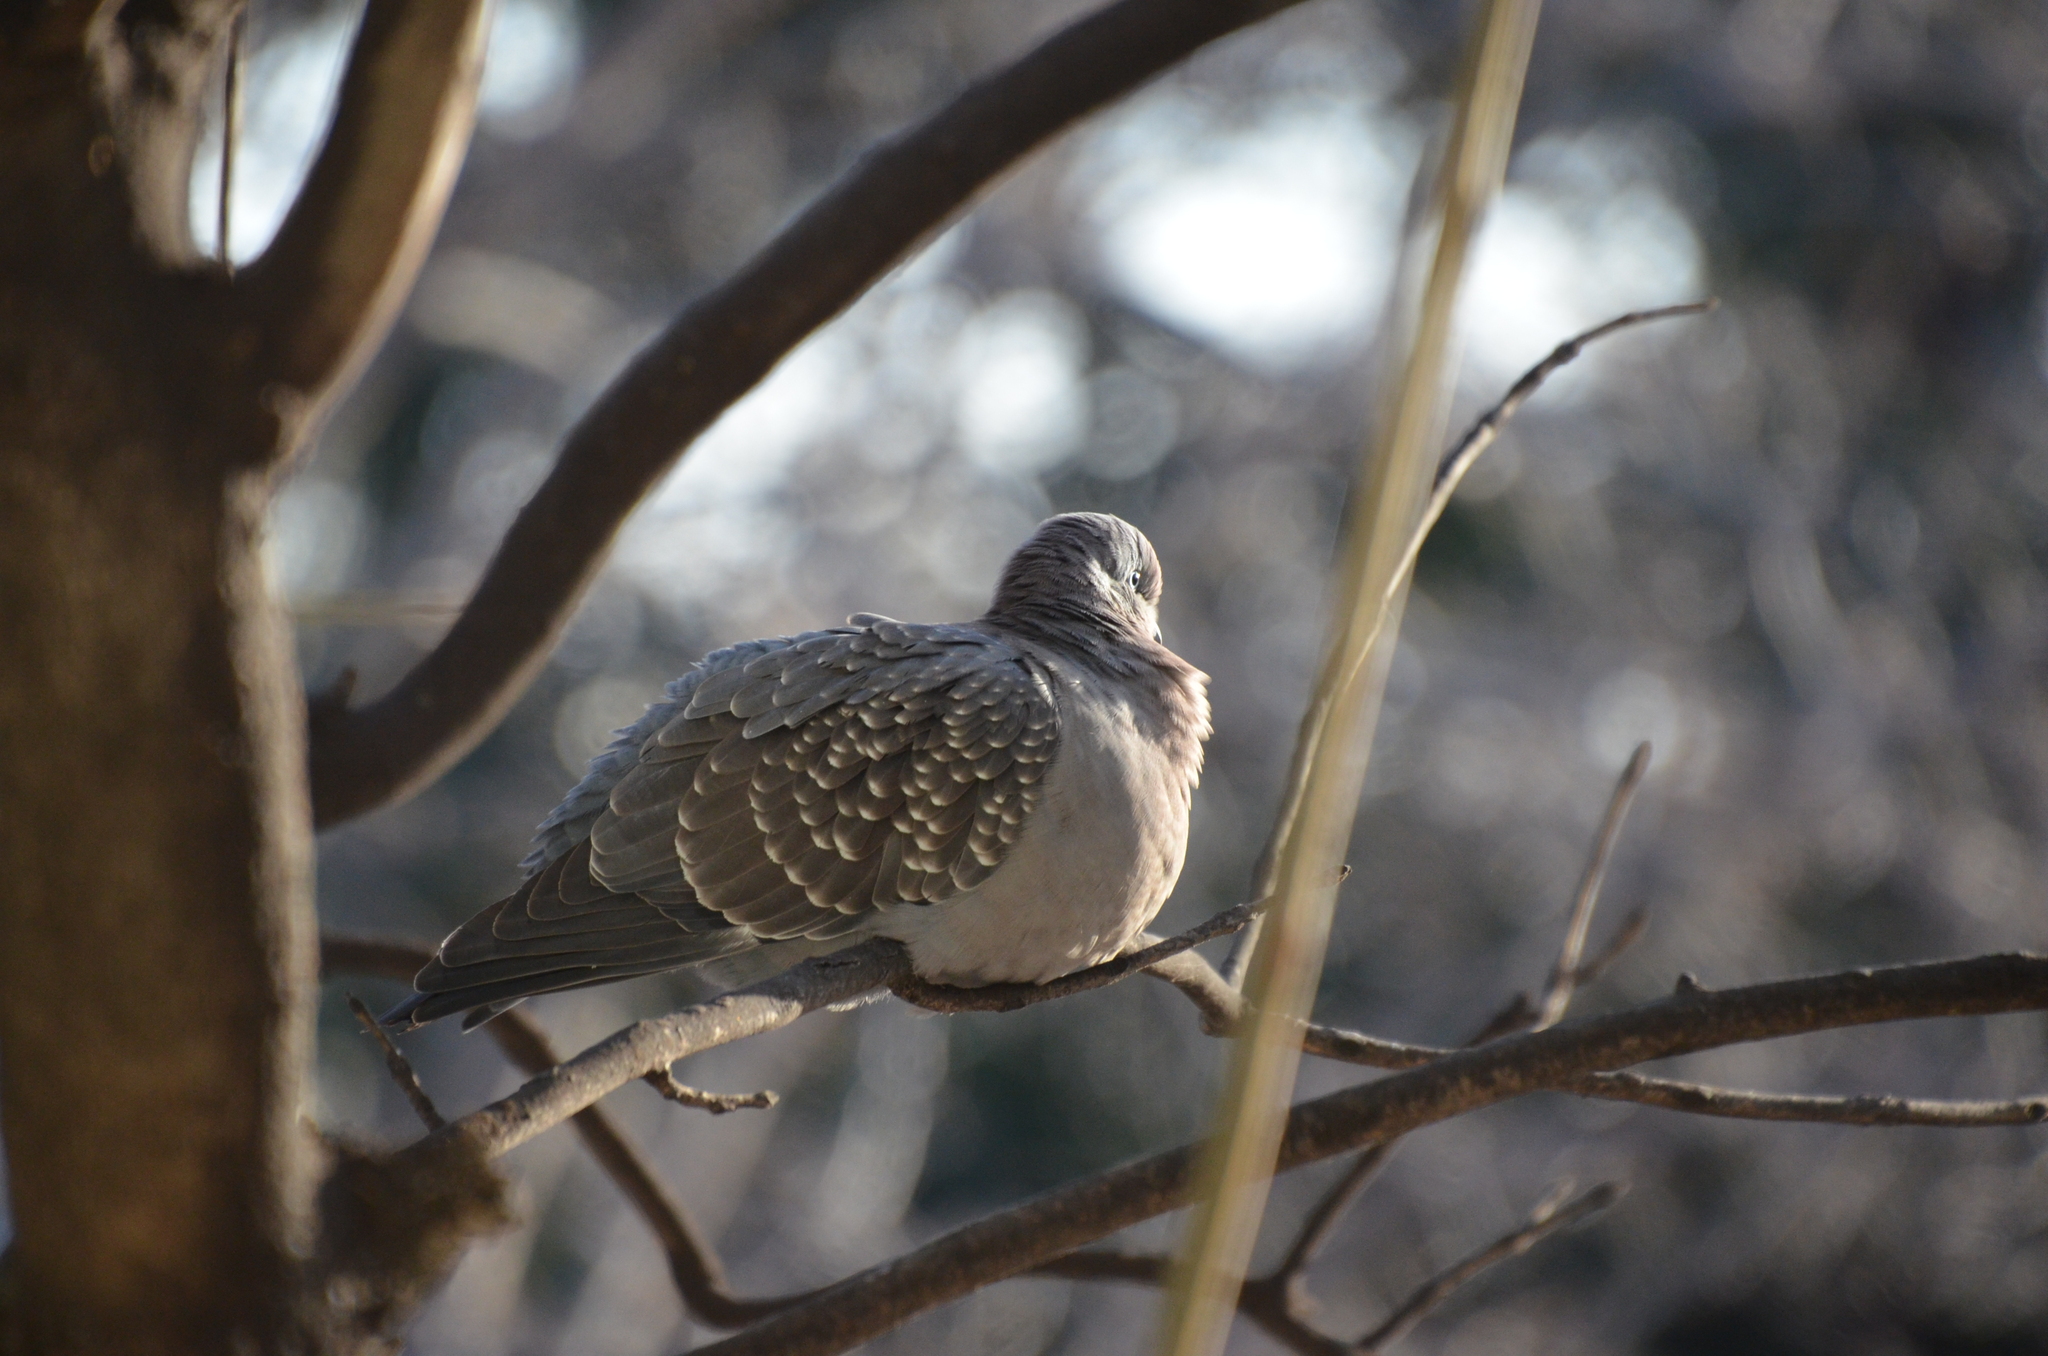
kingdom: Animalia
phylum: Chordata
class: Aves
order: Columbiformes
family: Columbidae
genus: Patagioenas
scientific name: Patagioenas maculosa
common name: Spot-winged pigeon
